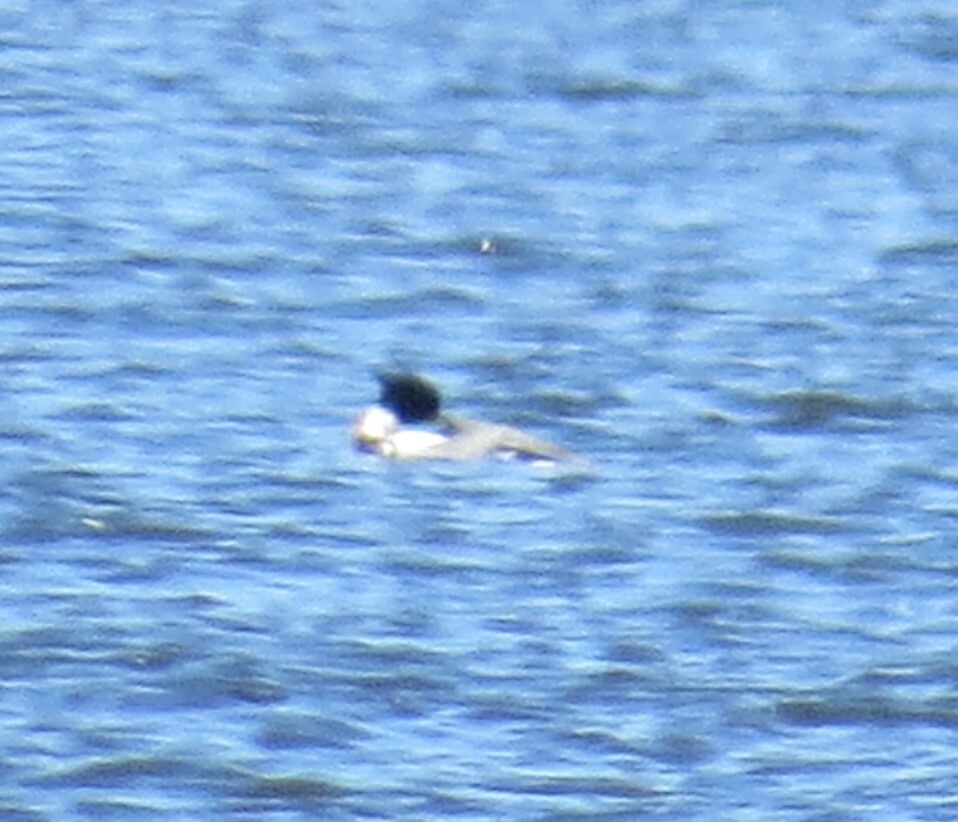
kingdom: Animalia
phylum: Chordata
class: Aves
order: Anseriformes
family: Anatidae
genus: Mergus
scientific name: Mergus serrator
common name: Red-breasted merganser
